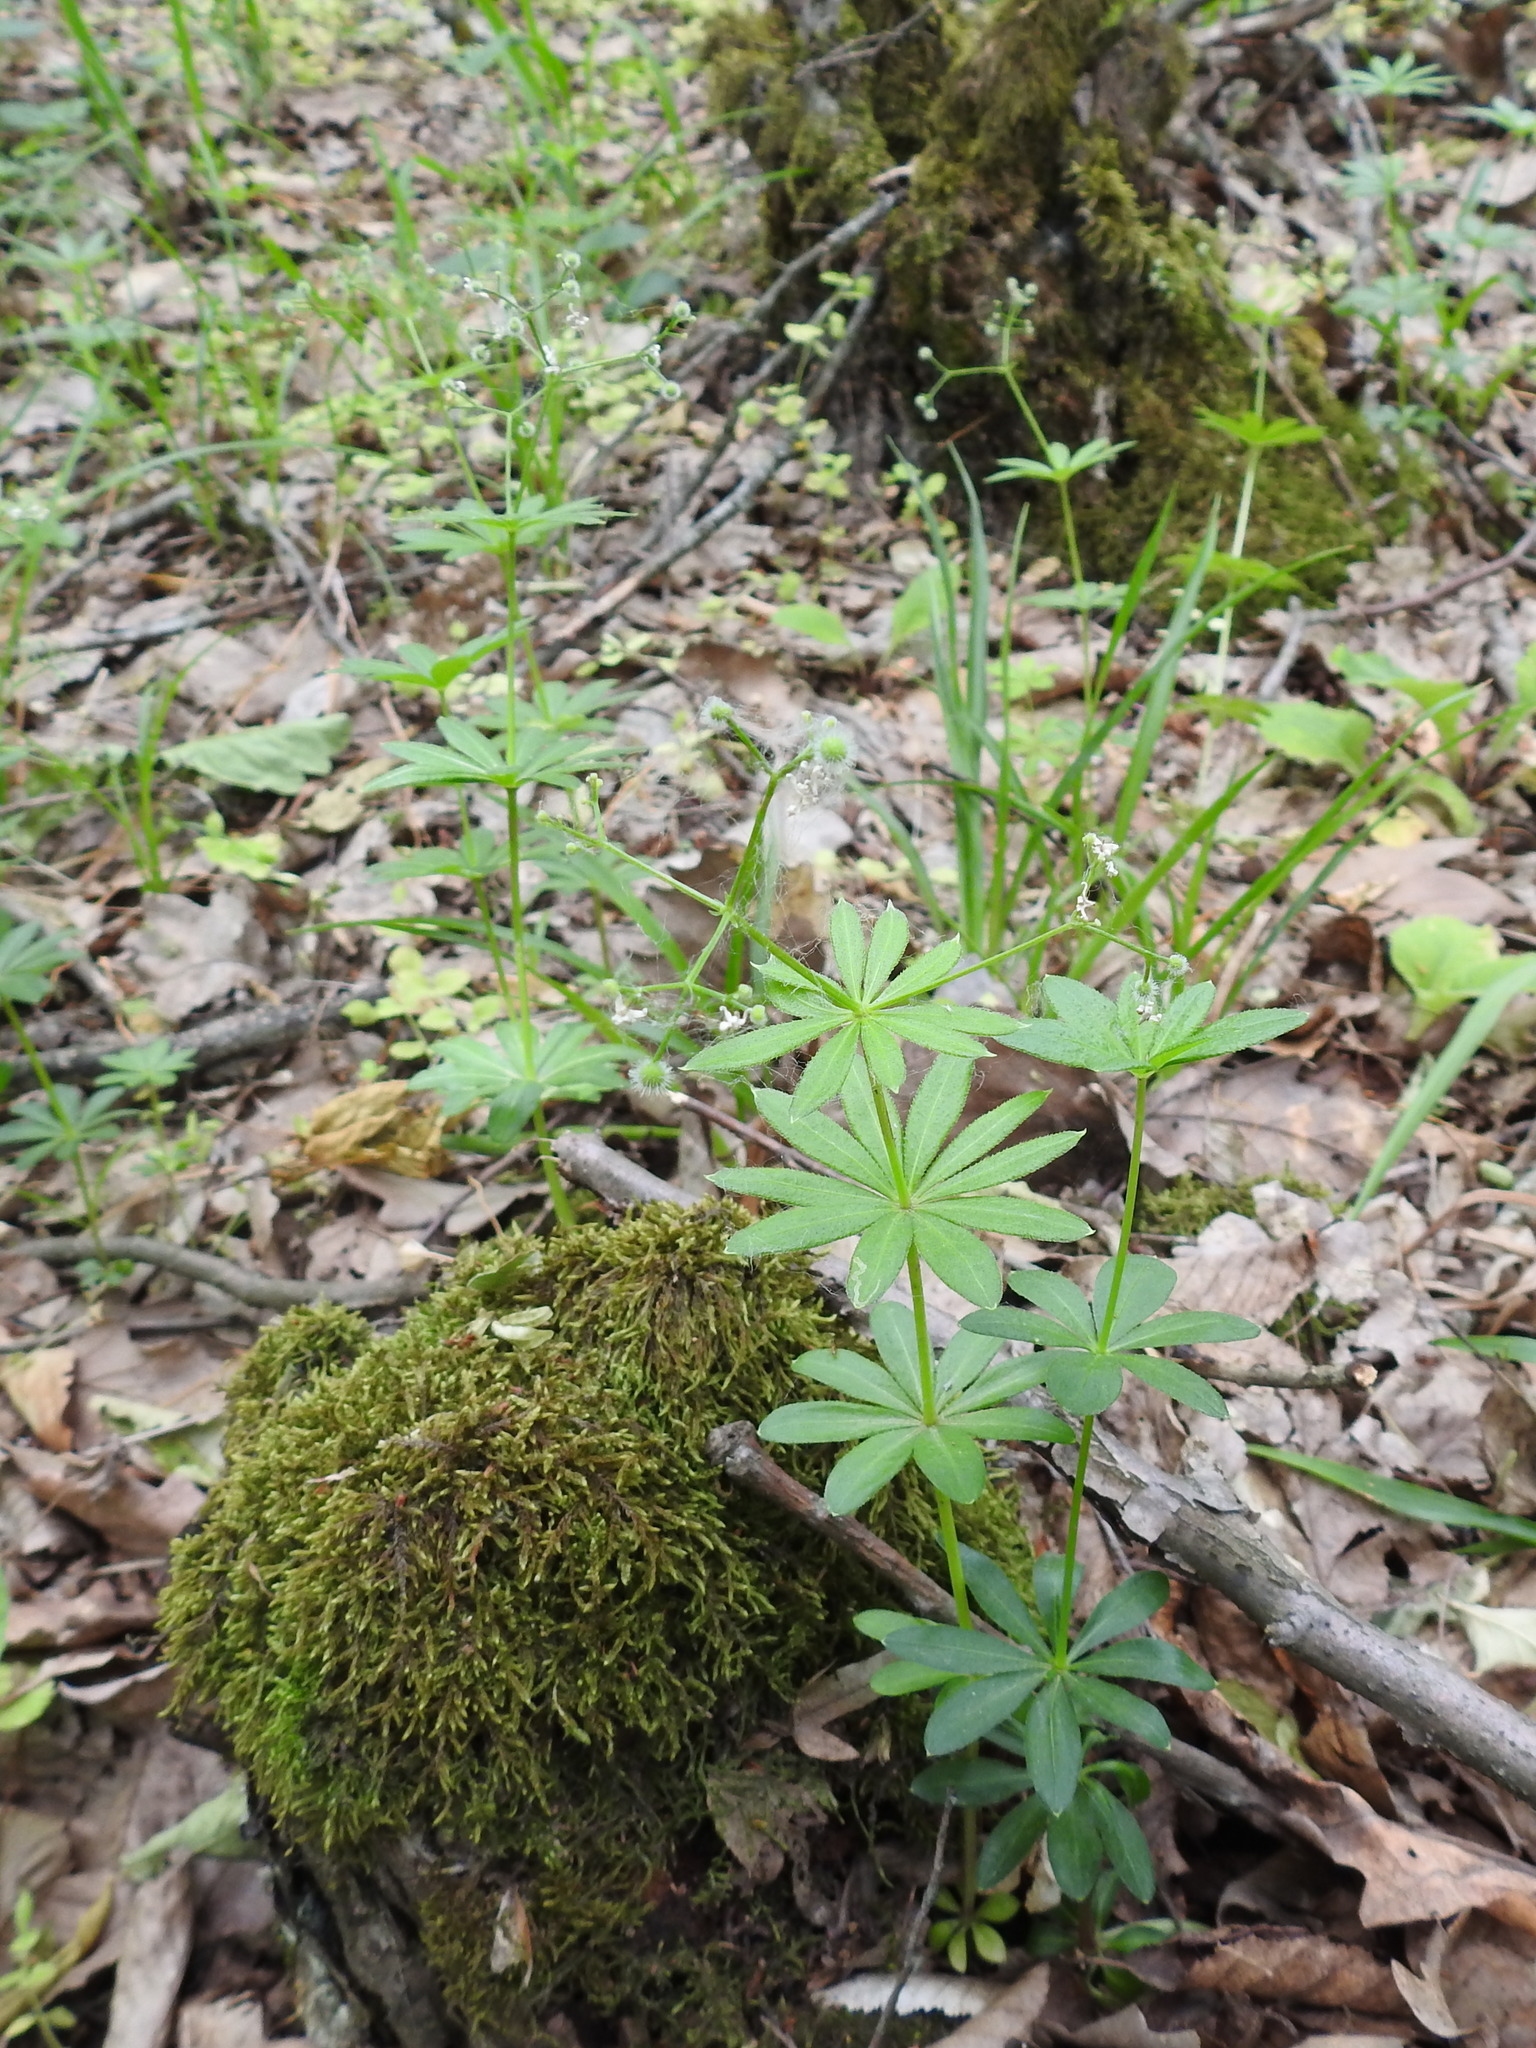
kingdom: Plantae
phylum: Tracheophyta
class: Magnoliopsida
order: Gentianales
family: Rubiaceae
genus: Galium
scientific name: Galium odoratum
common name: Sweet woodruff
